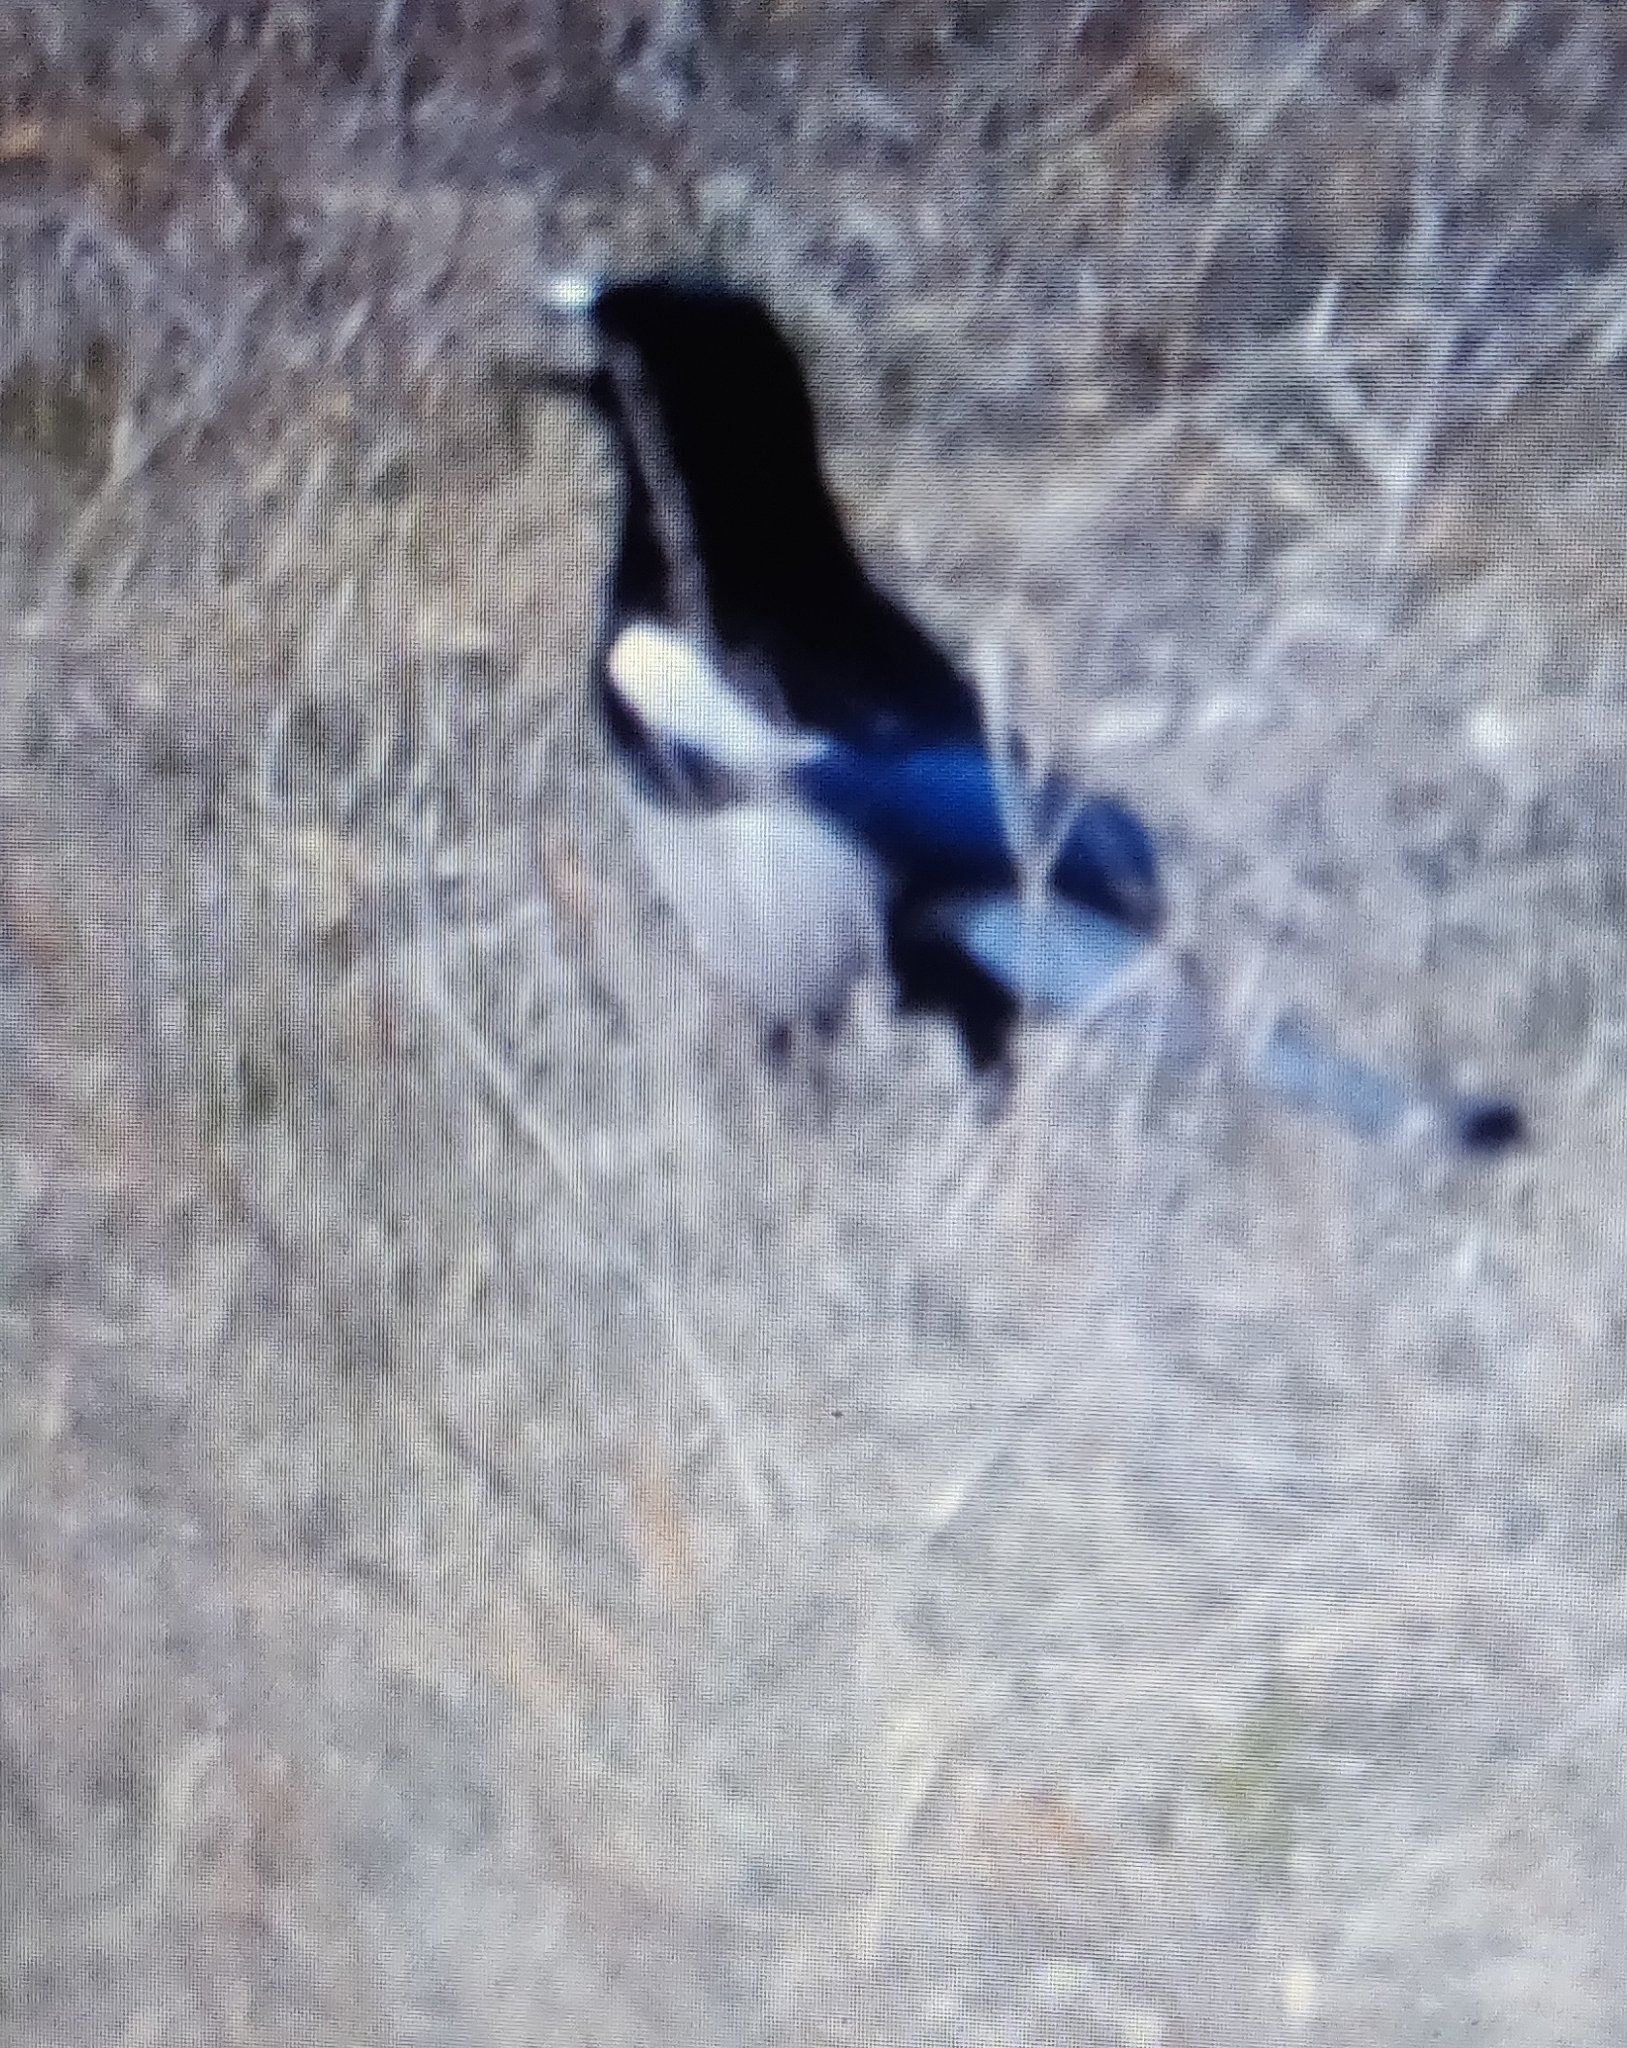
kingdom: Animalia
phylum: Chordata
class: Aves
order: Passeriformes
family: Corvidae
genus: Pica
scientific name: Pica hudsonia
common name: Black-billed magpie
